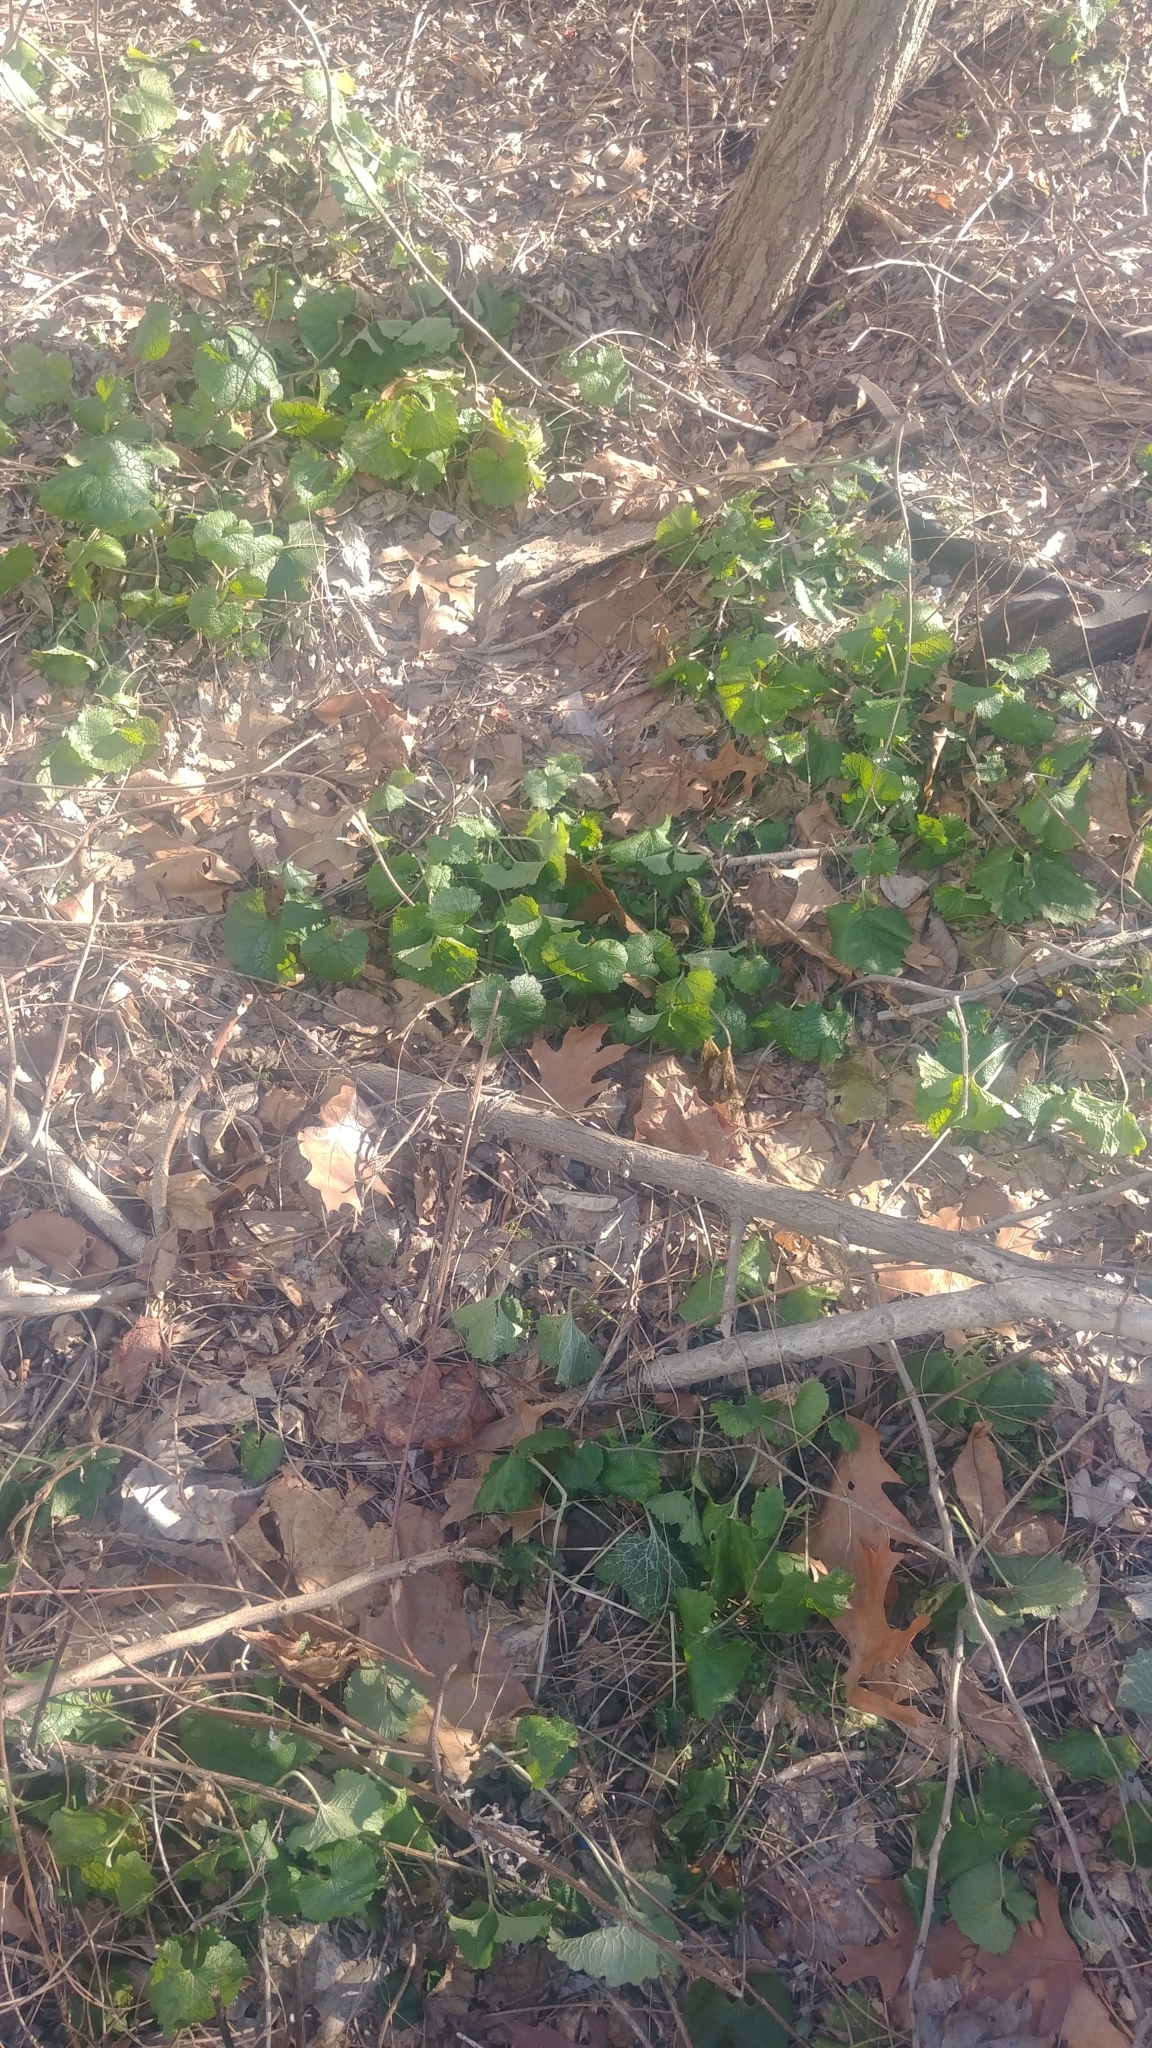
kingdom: Plantae
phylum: Tracheophyta
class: Magnoliopsida
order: Brassicales
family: Brassicaceae
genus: Alliaria
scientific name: Alliaria petiolata
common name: Garlic mustard
